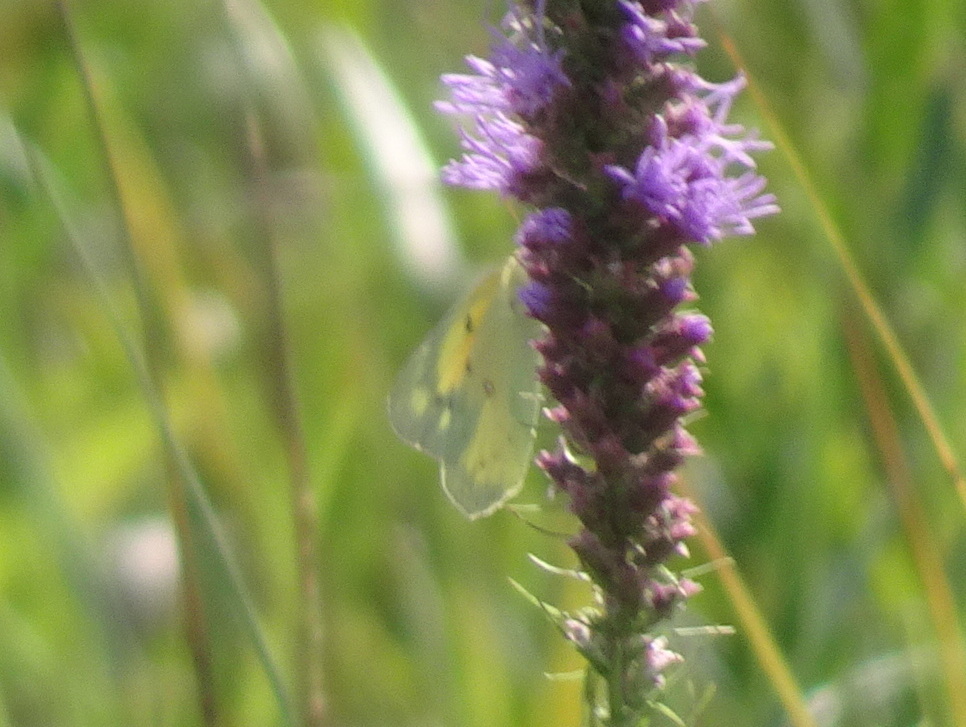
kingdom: Animalia
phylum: Arthropoda
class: Insecta
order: Lepidoptera
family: Pieridae
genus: Colias
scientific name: Colias eurytheme
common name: Alfalfa butterfly
